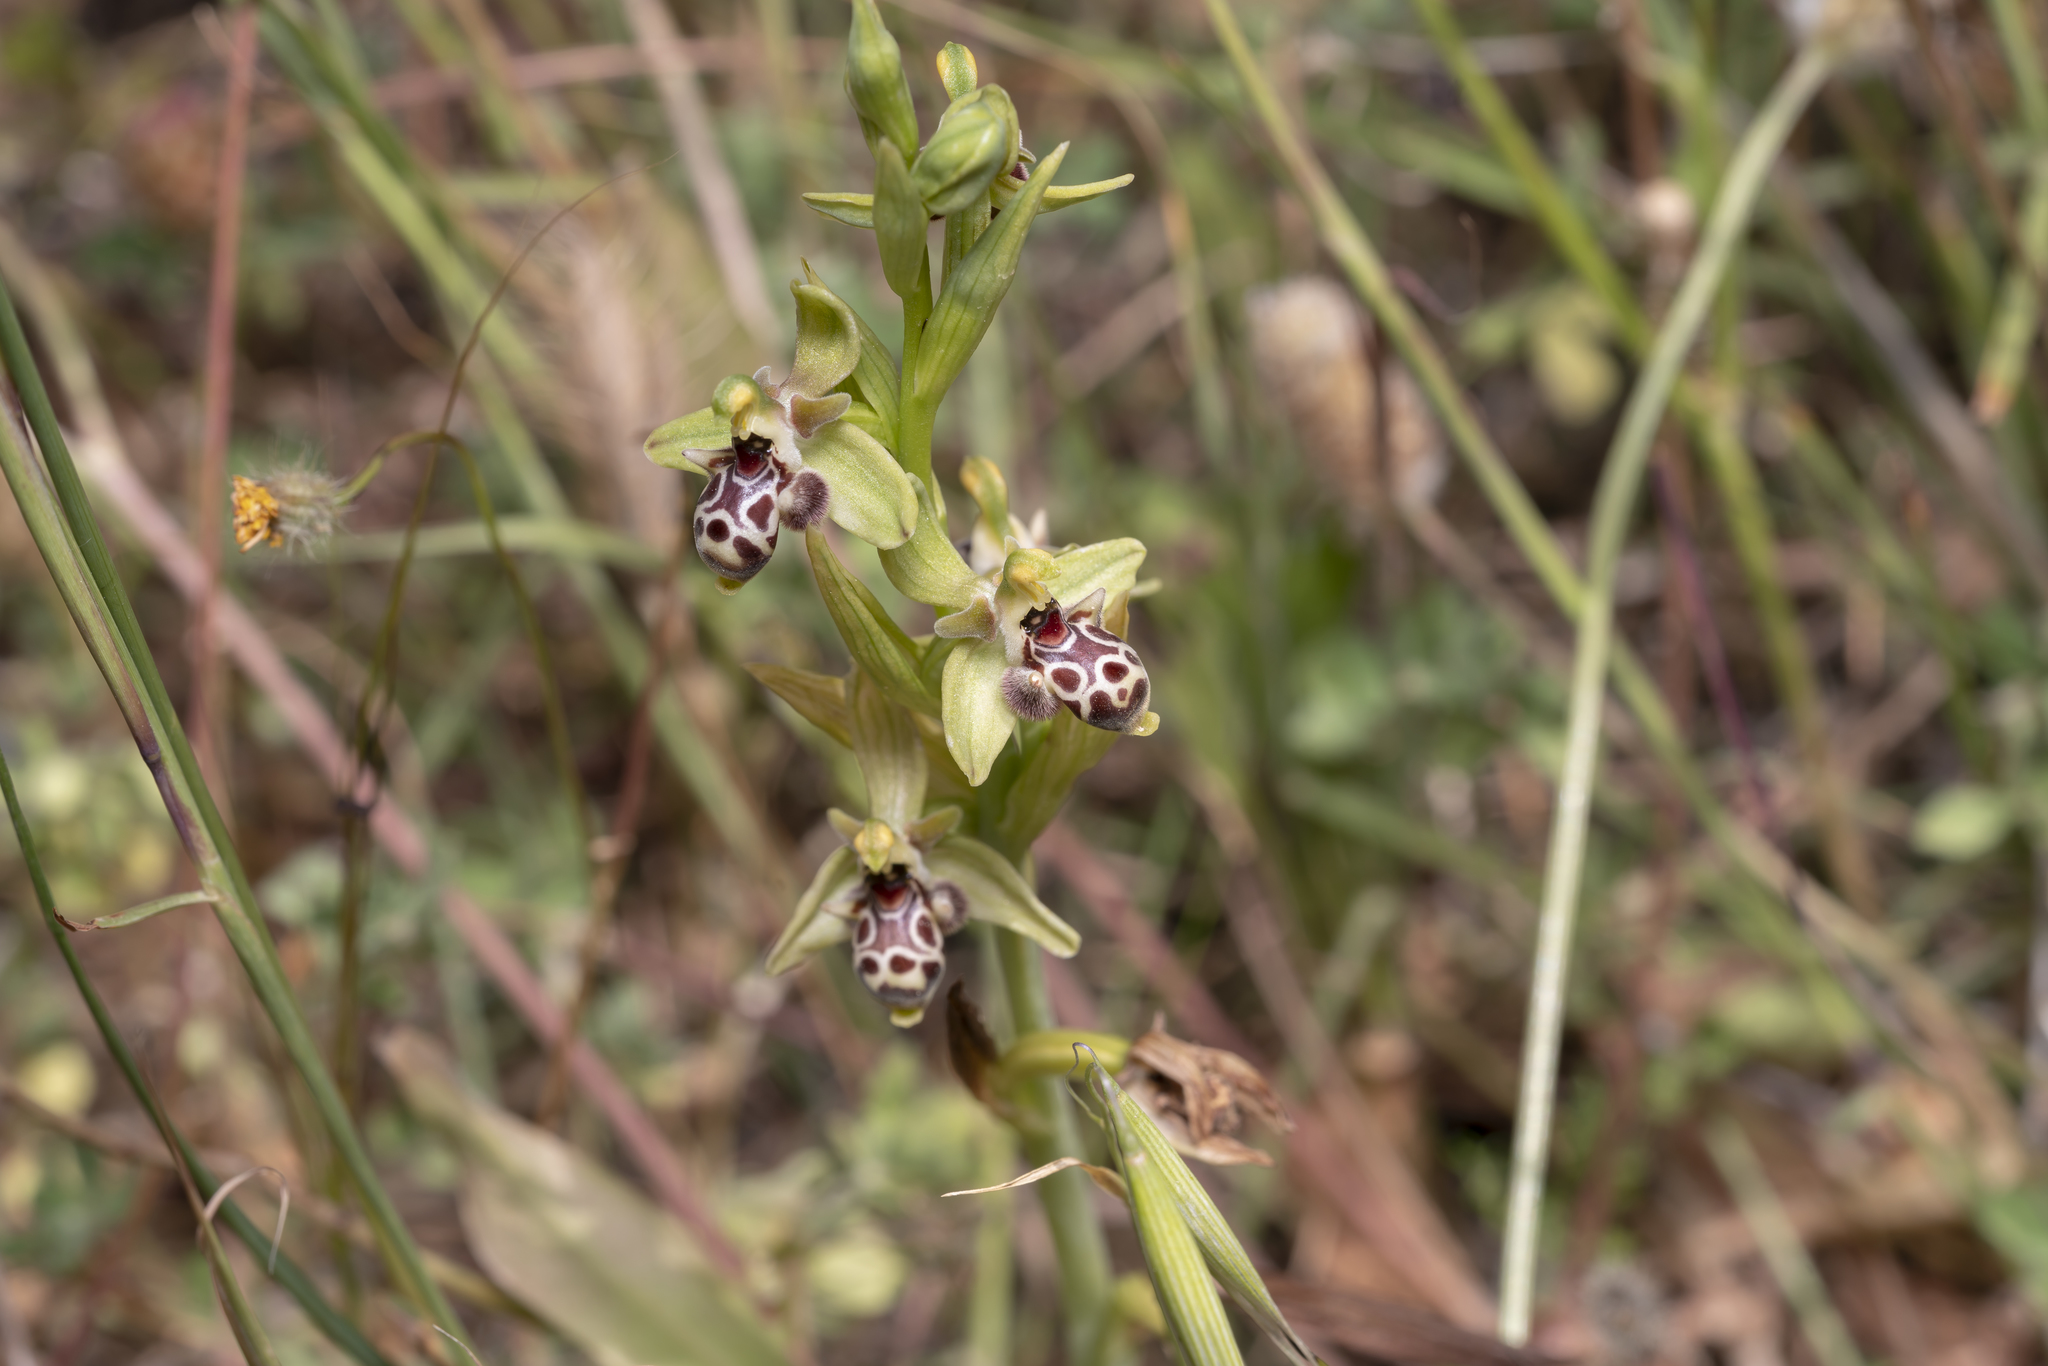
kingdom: Plantae
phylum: Tracheophyta
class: Liliopsida
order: Asparagales
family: Orchidaceae
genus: Ophrys
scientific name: Ophrys scolopax
